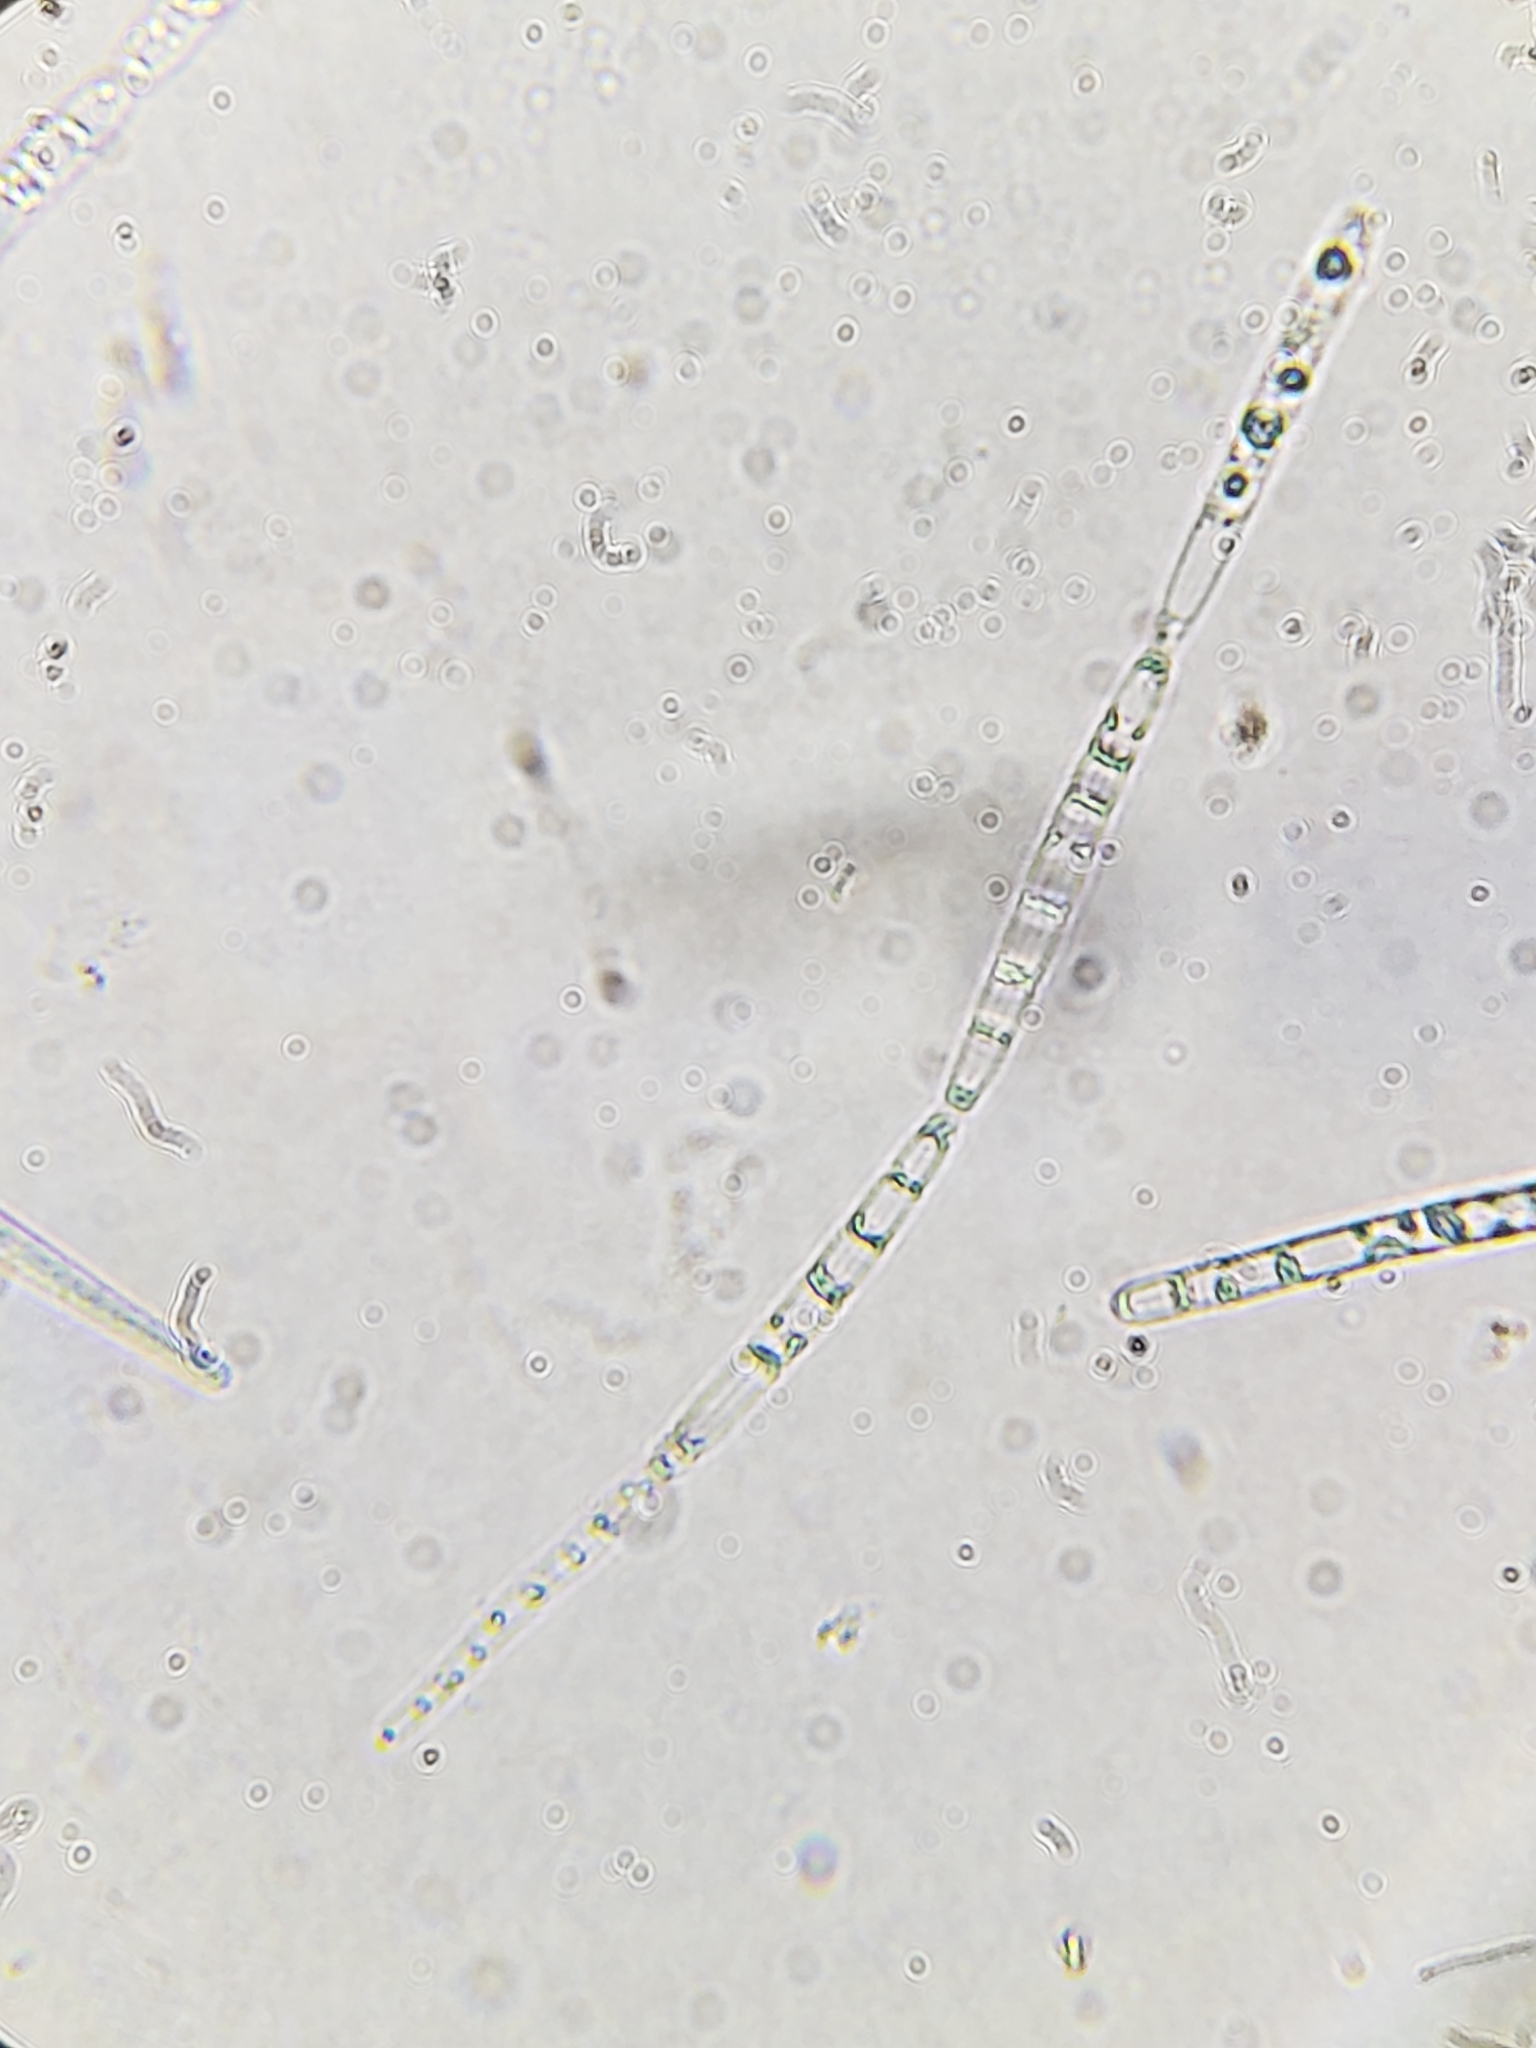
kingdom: Fungi
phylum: Ascomycota
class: Sordariomycetes
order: Hypocreales
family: Ophiocordycipitaceae
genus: Tolypocladium
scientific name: Tolypocladium longisegmentatum
